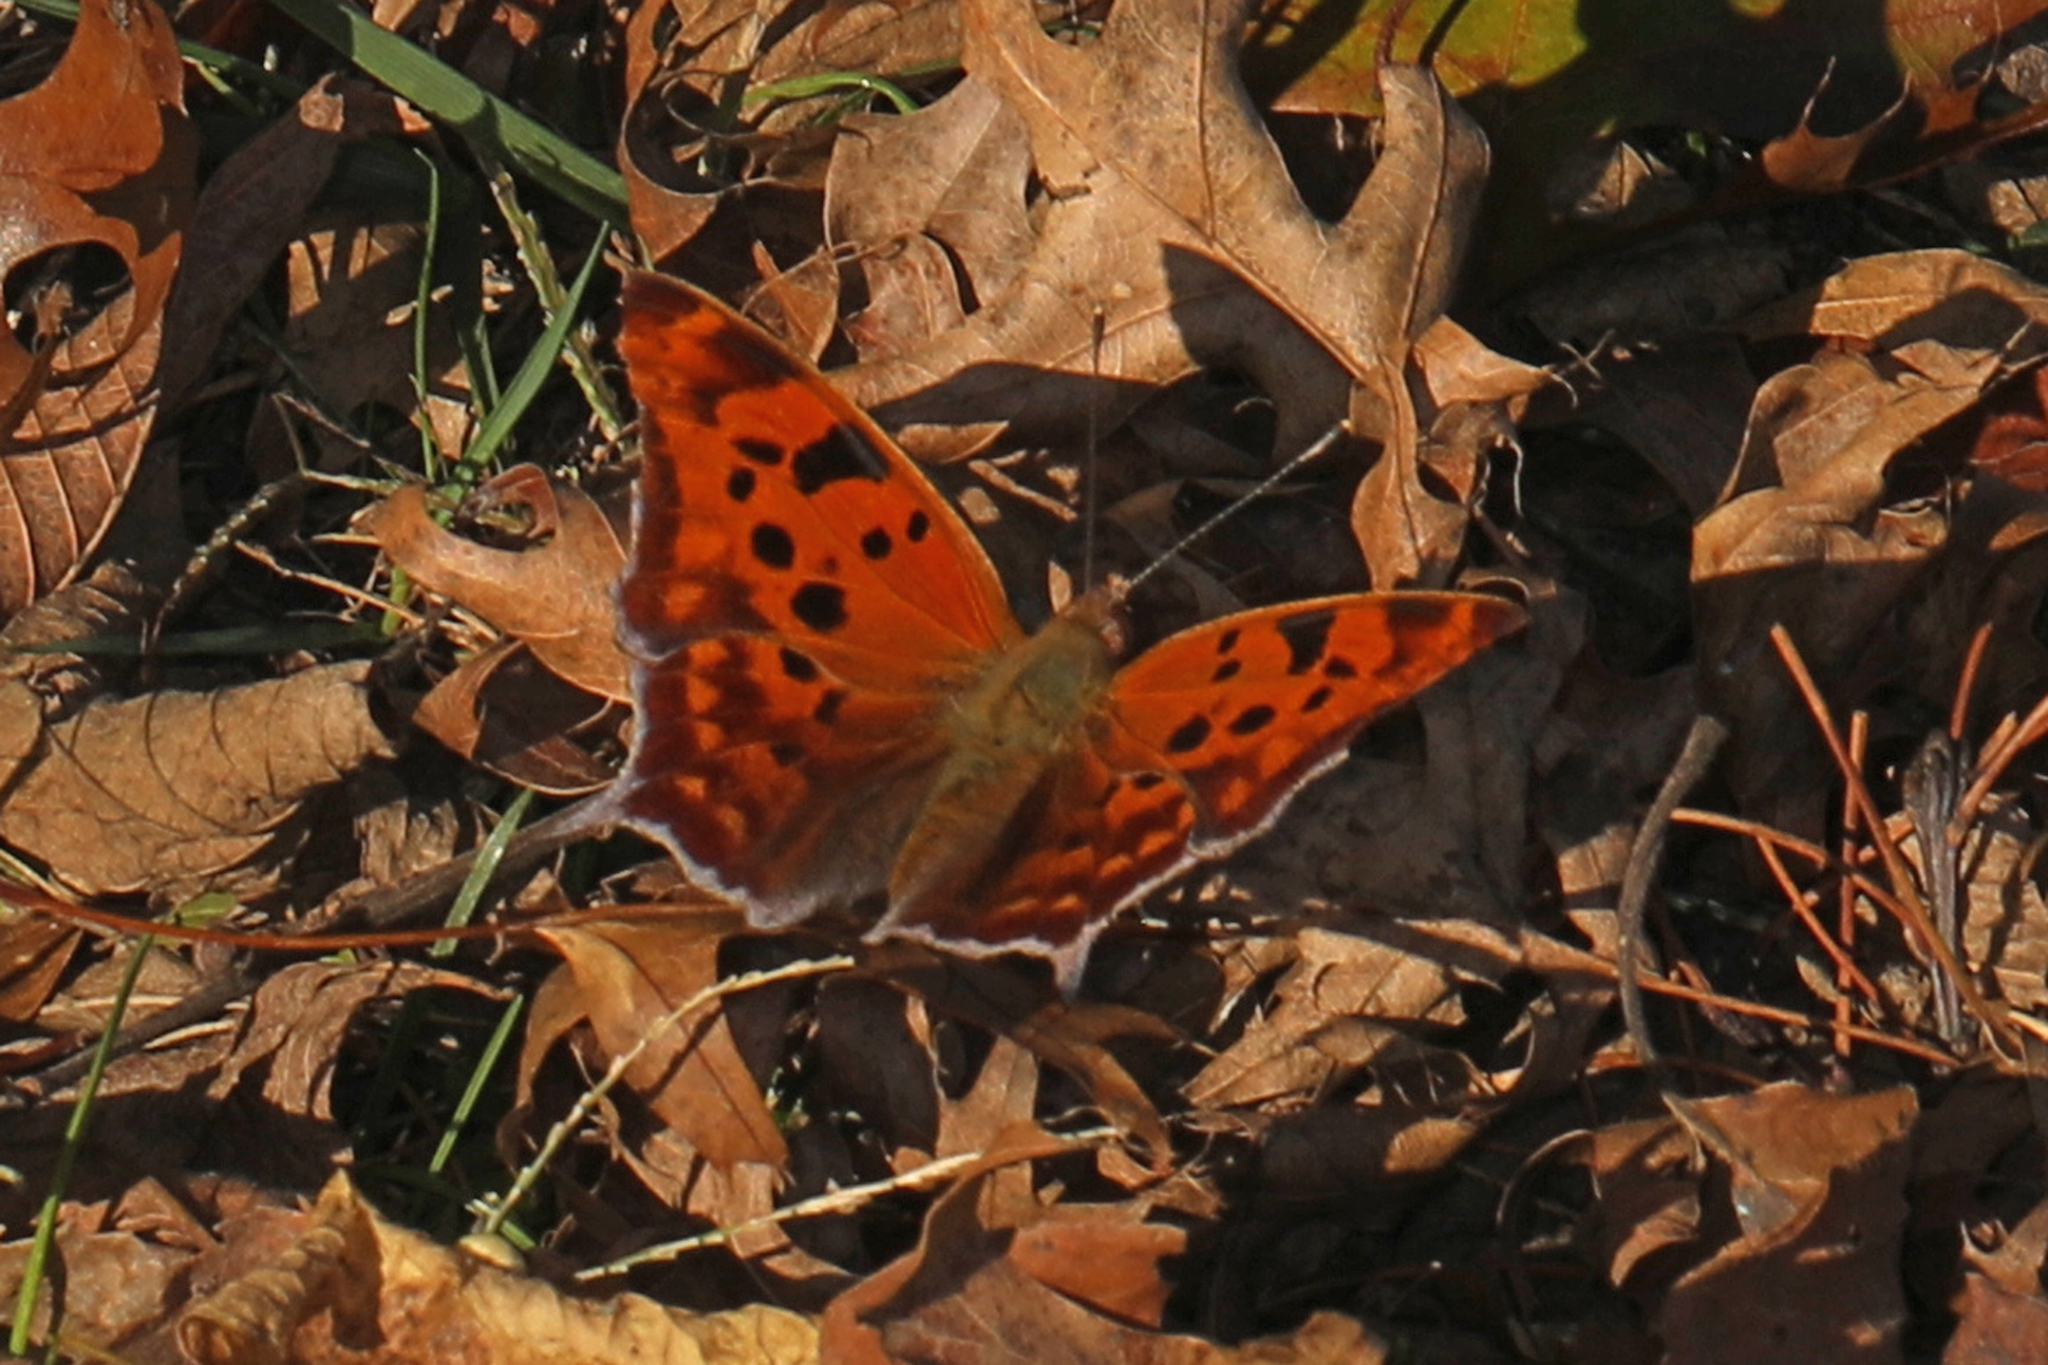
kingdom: Animalia
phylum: Arthropoda
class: Insecta
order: Lepidoptera
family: Nymphalidae
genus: Polygonia
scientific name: Polygonia interrogationis
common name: Question mark
